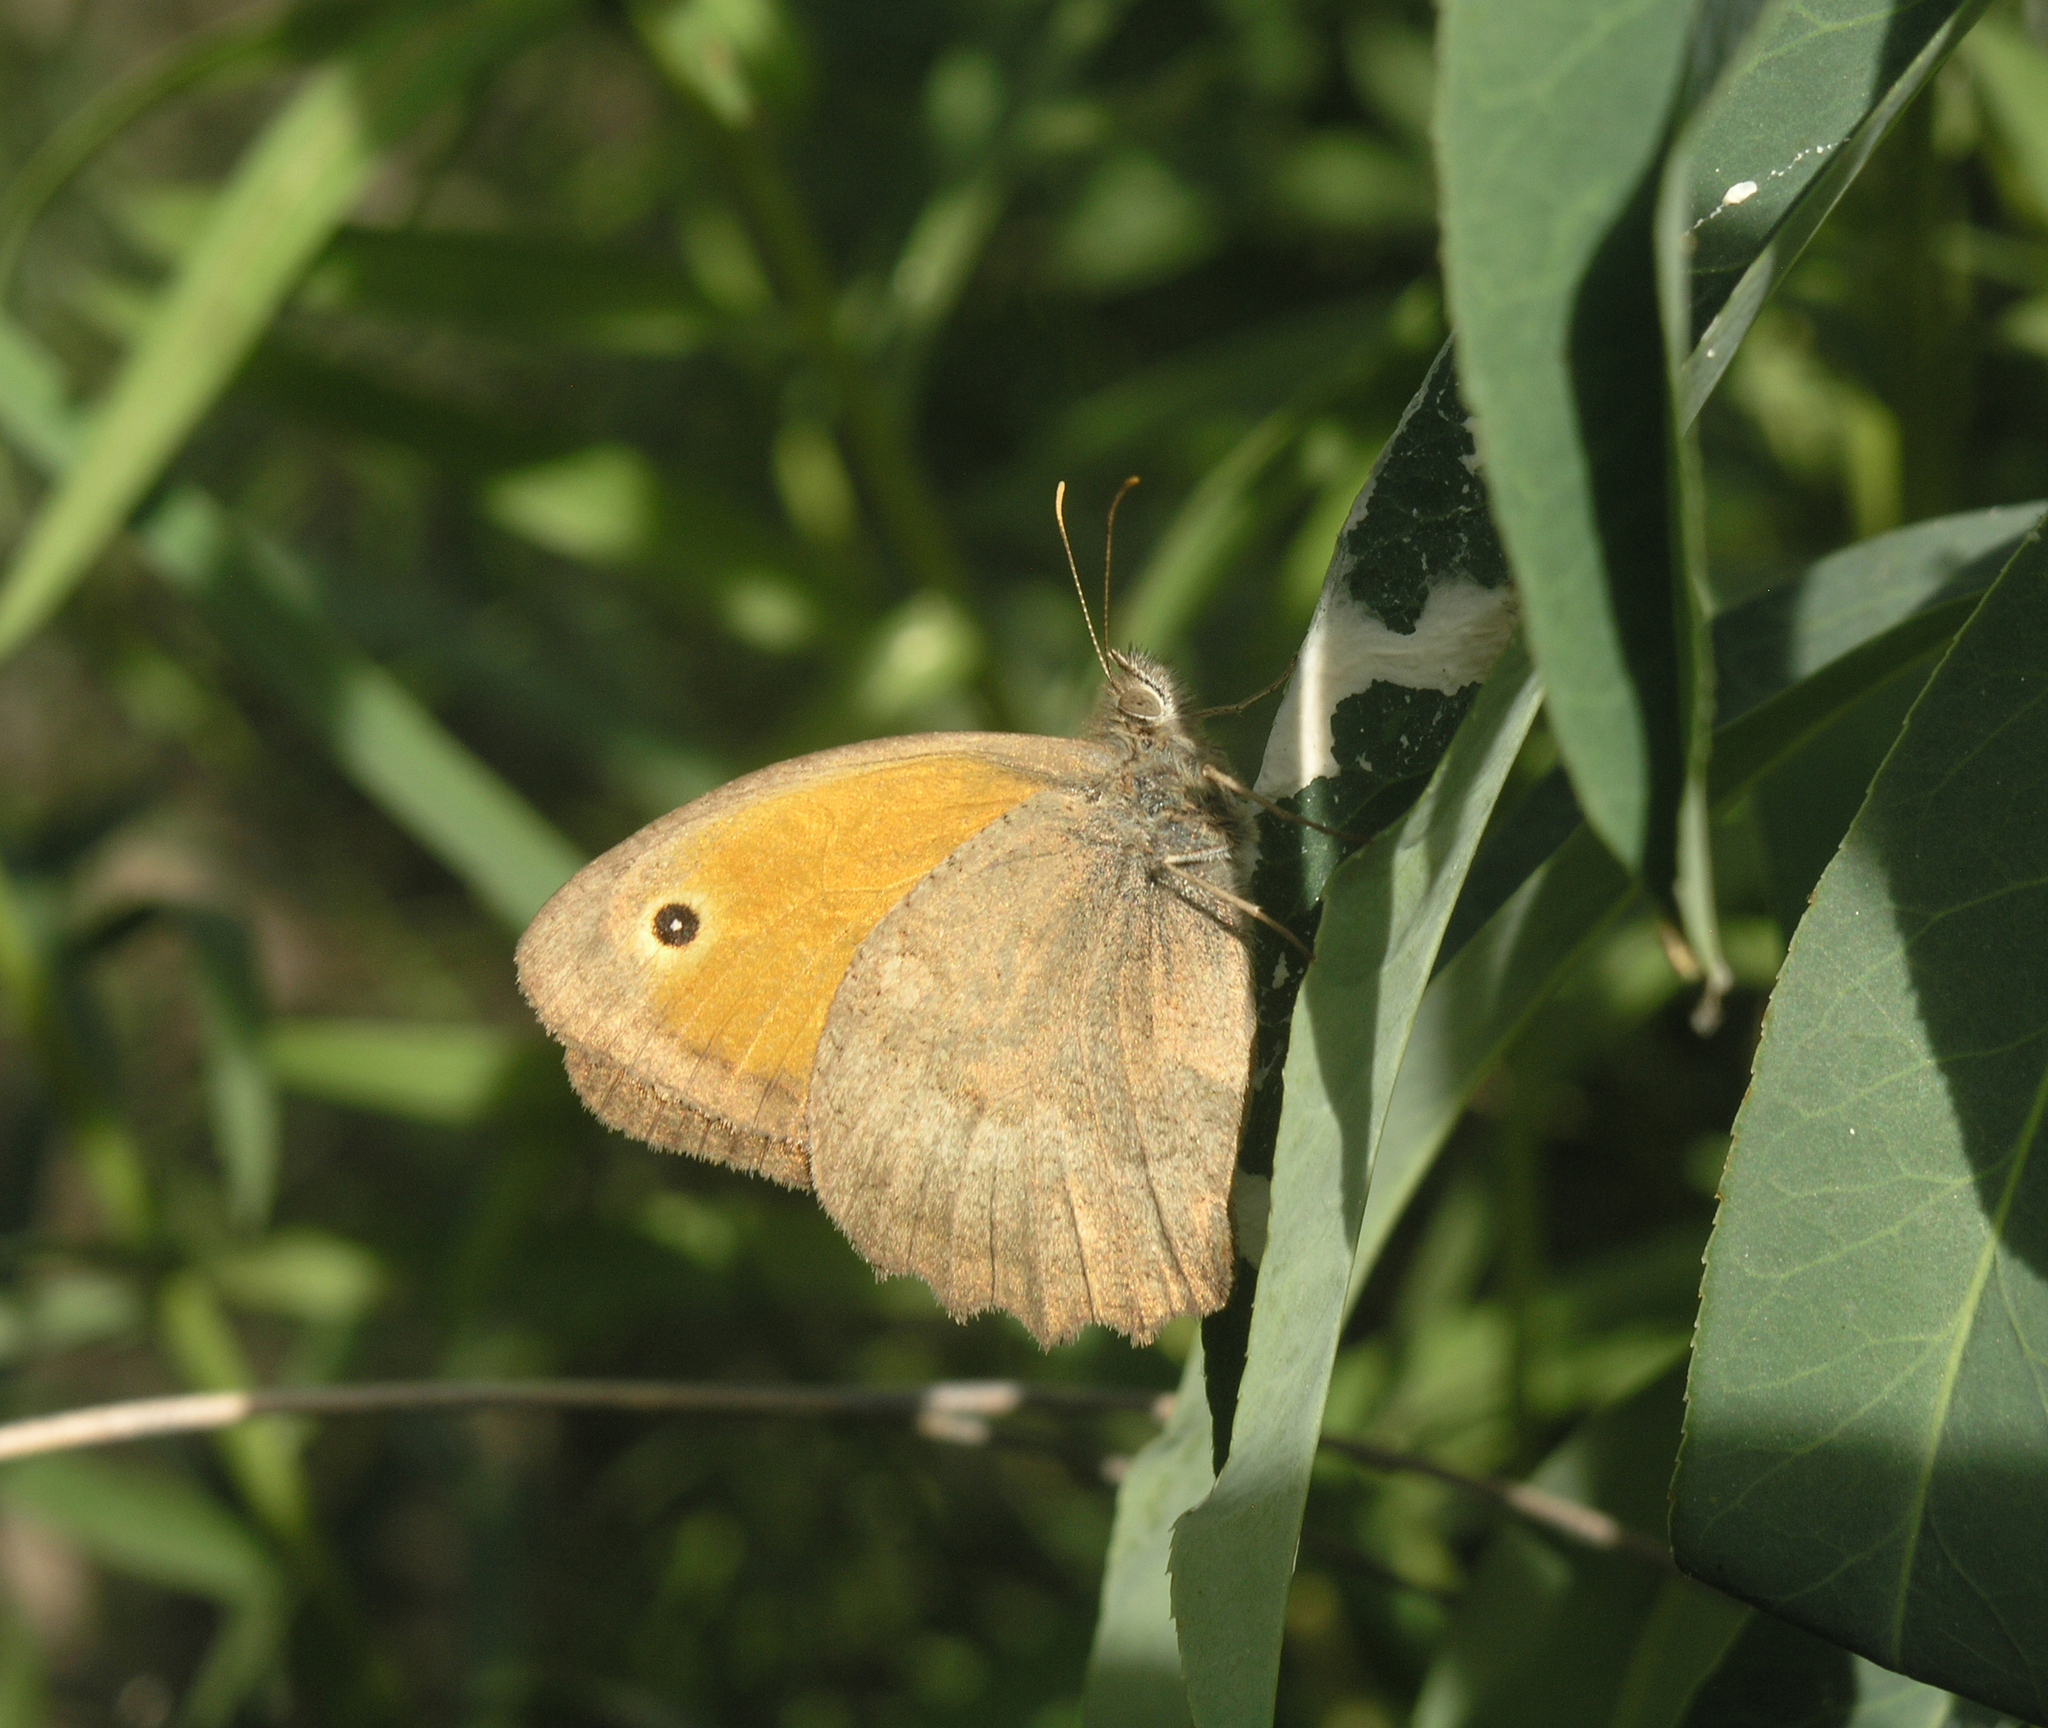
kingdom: Animalia
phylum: Arthropoda
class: Insecta
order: Lepidoptera
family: Nymphalidae
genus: Hyponephele
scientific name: Hyponephele lupinus
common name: Oriental meadow brown
